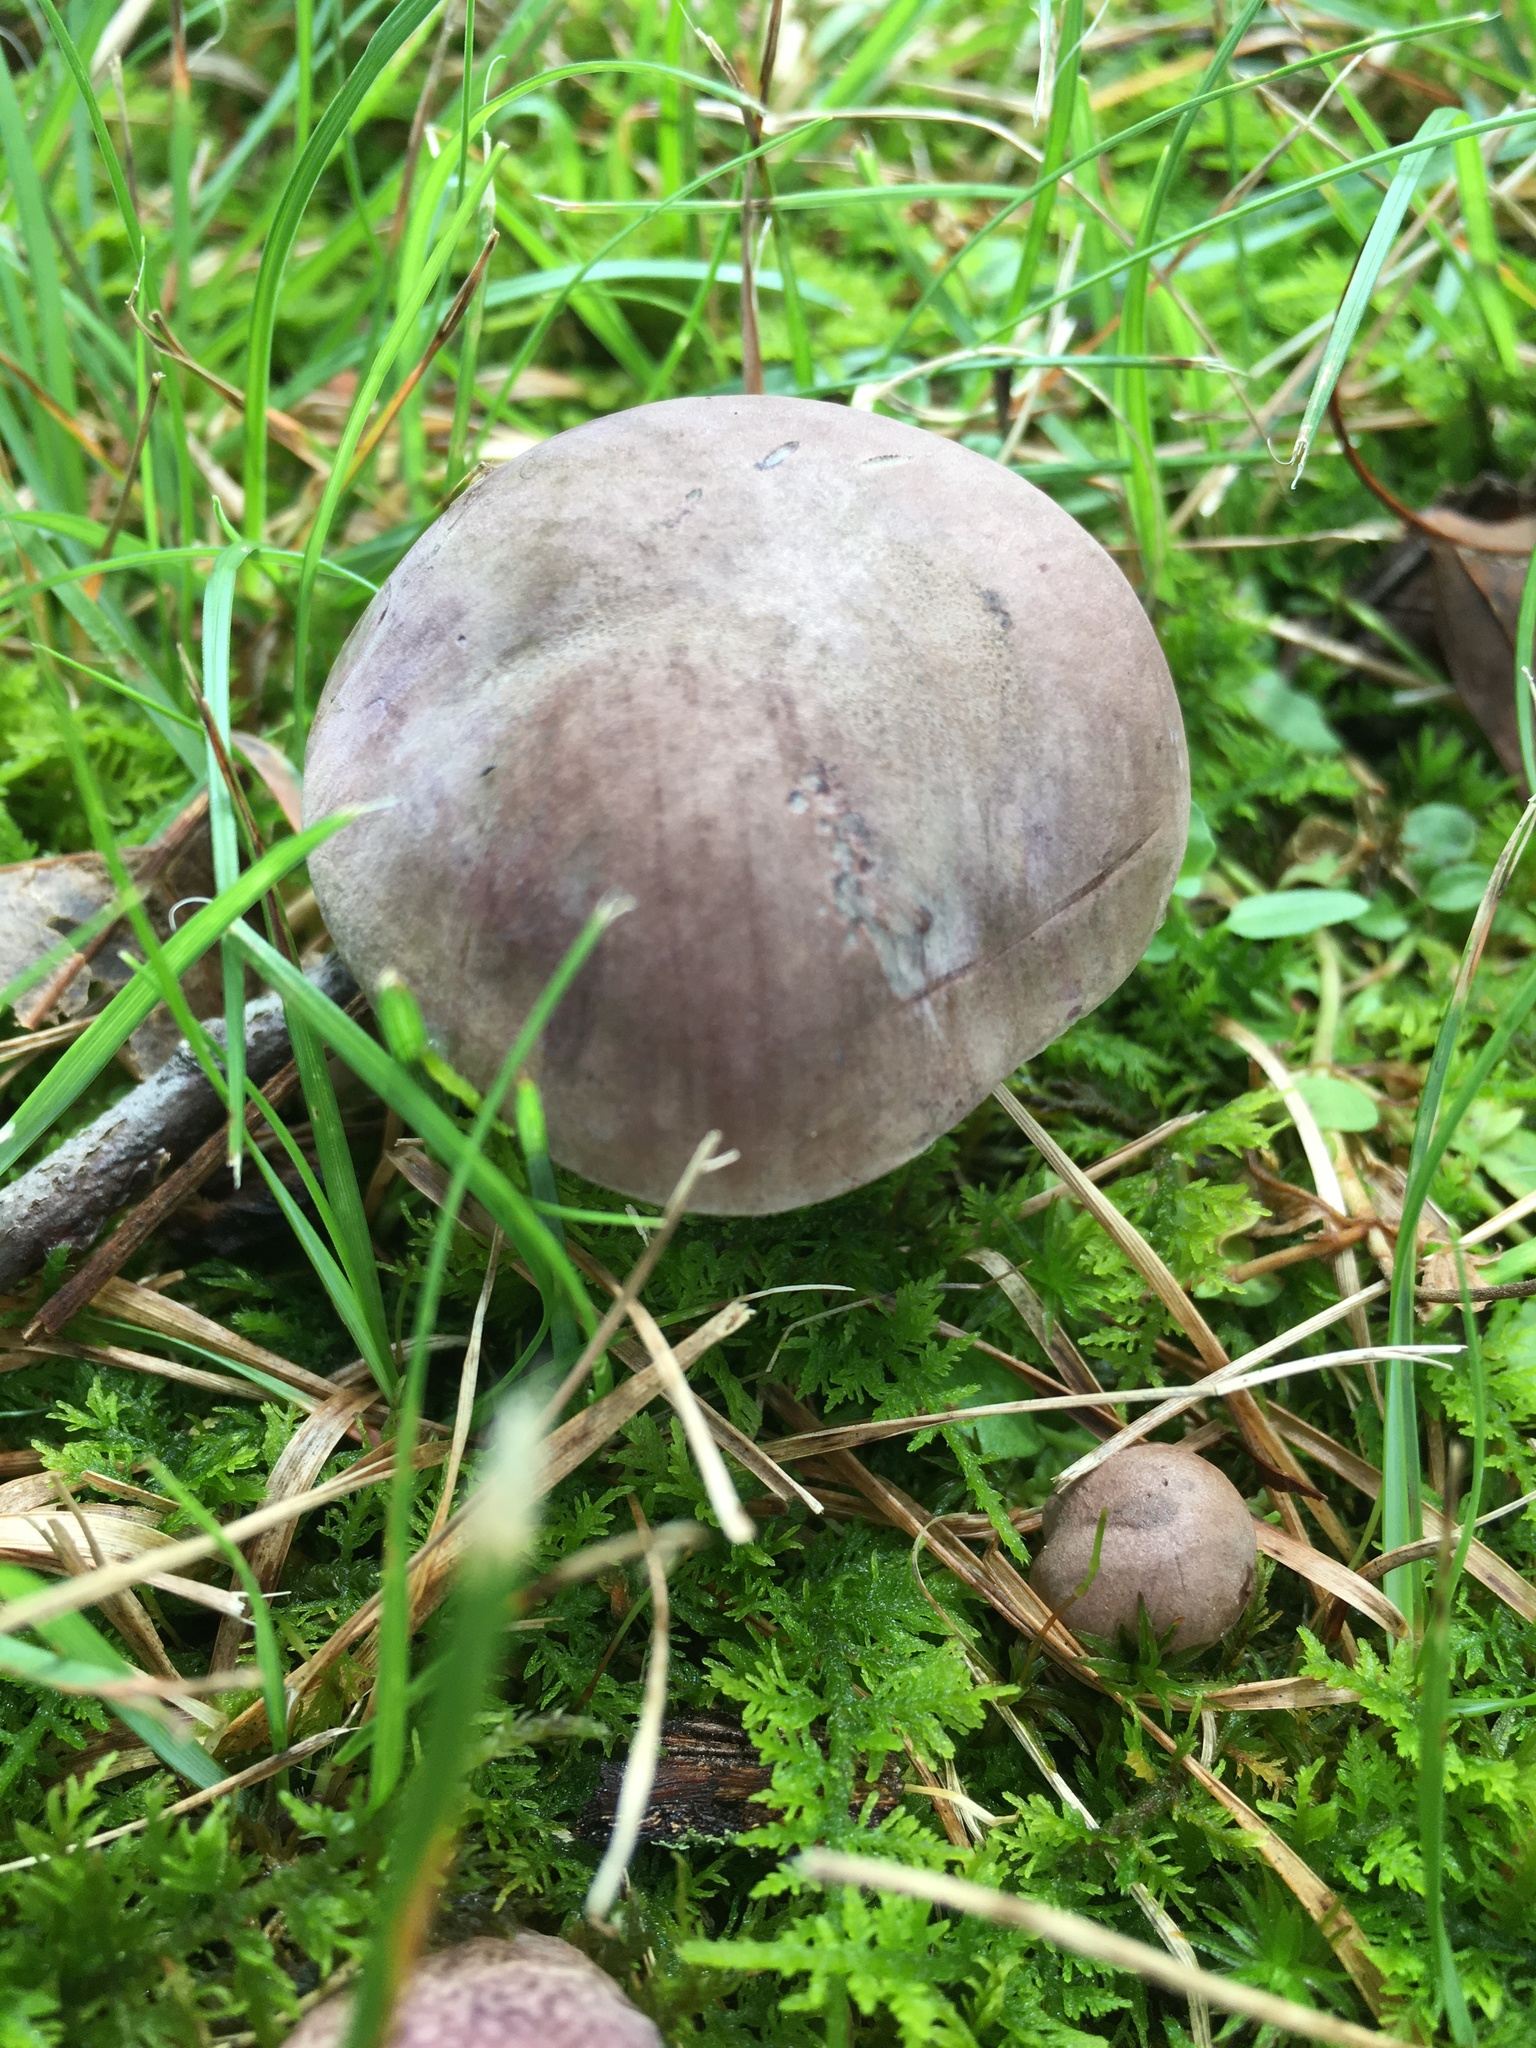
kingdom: Fungi
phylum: Basidiomycota
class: Agaricomycetes
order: Boletales
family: Boletaceae
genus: Tylopilus
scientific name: Tylopilus plumbeoviolaceus
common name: Violet gray bolete
